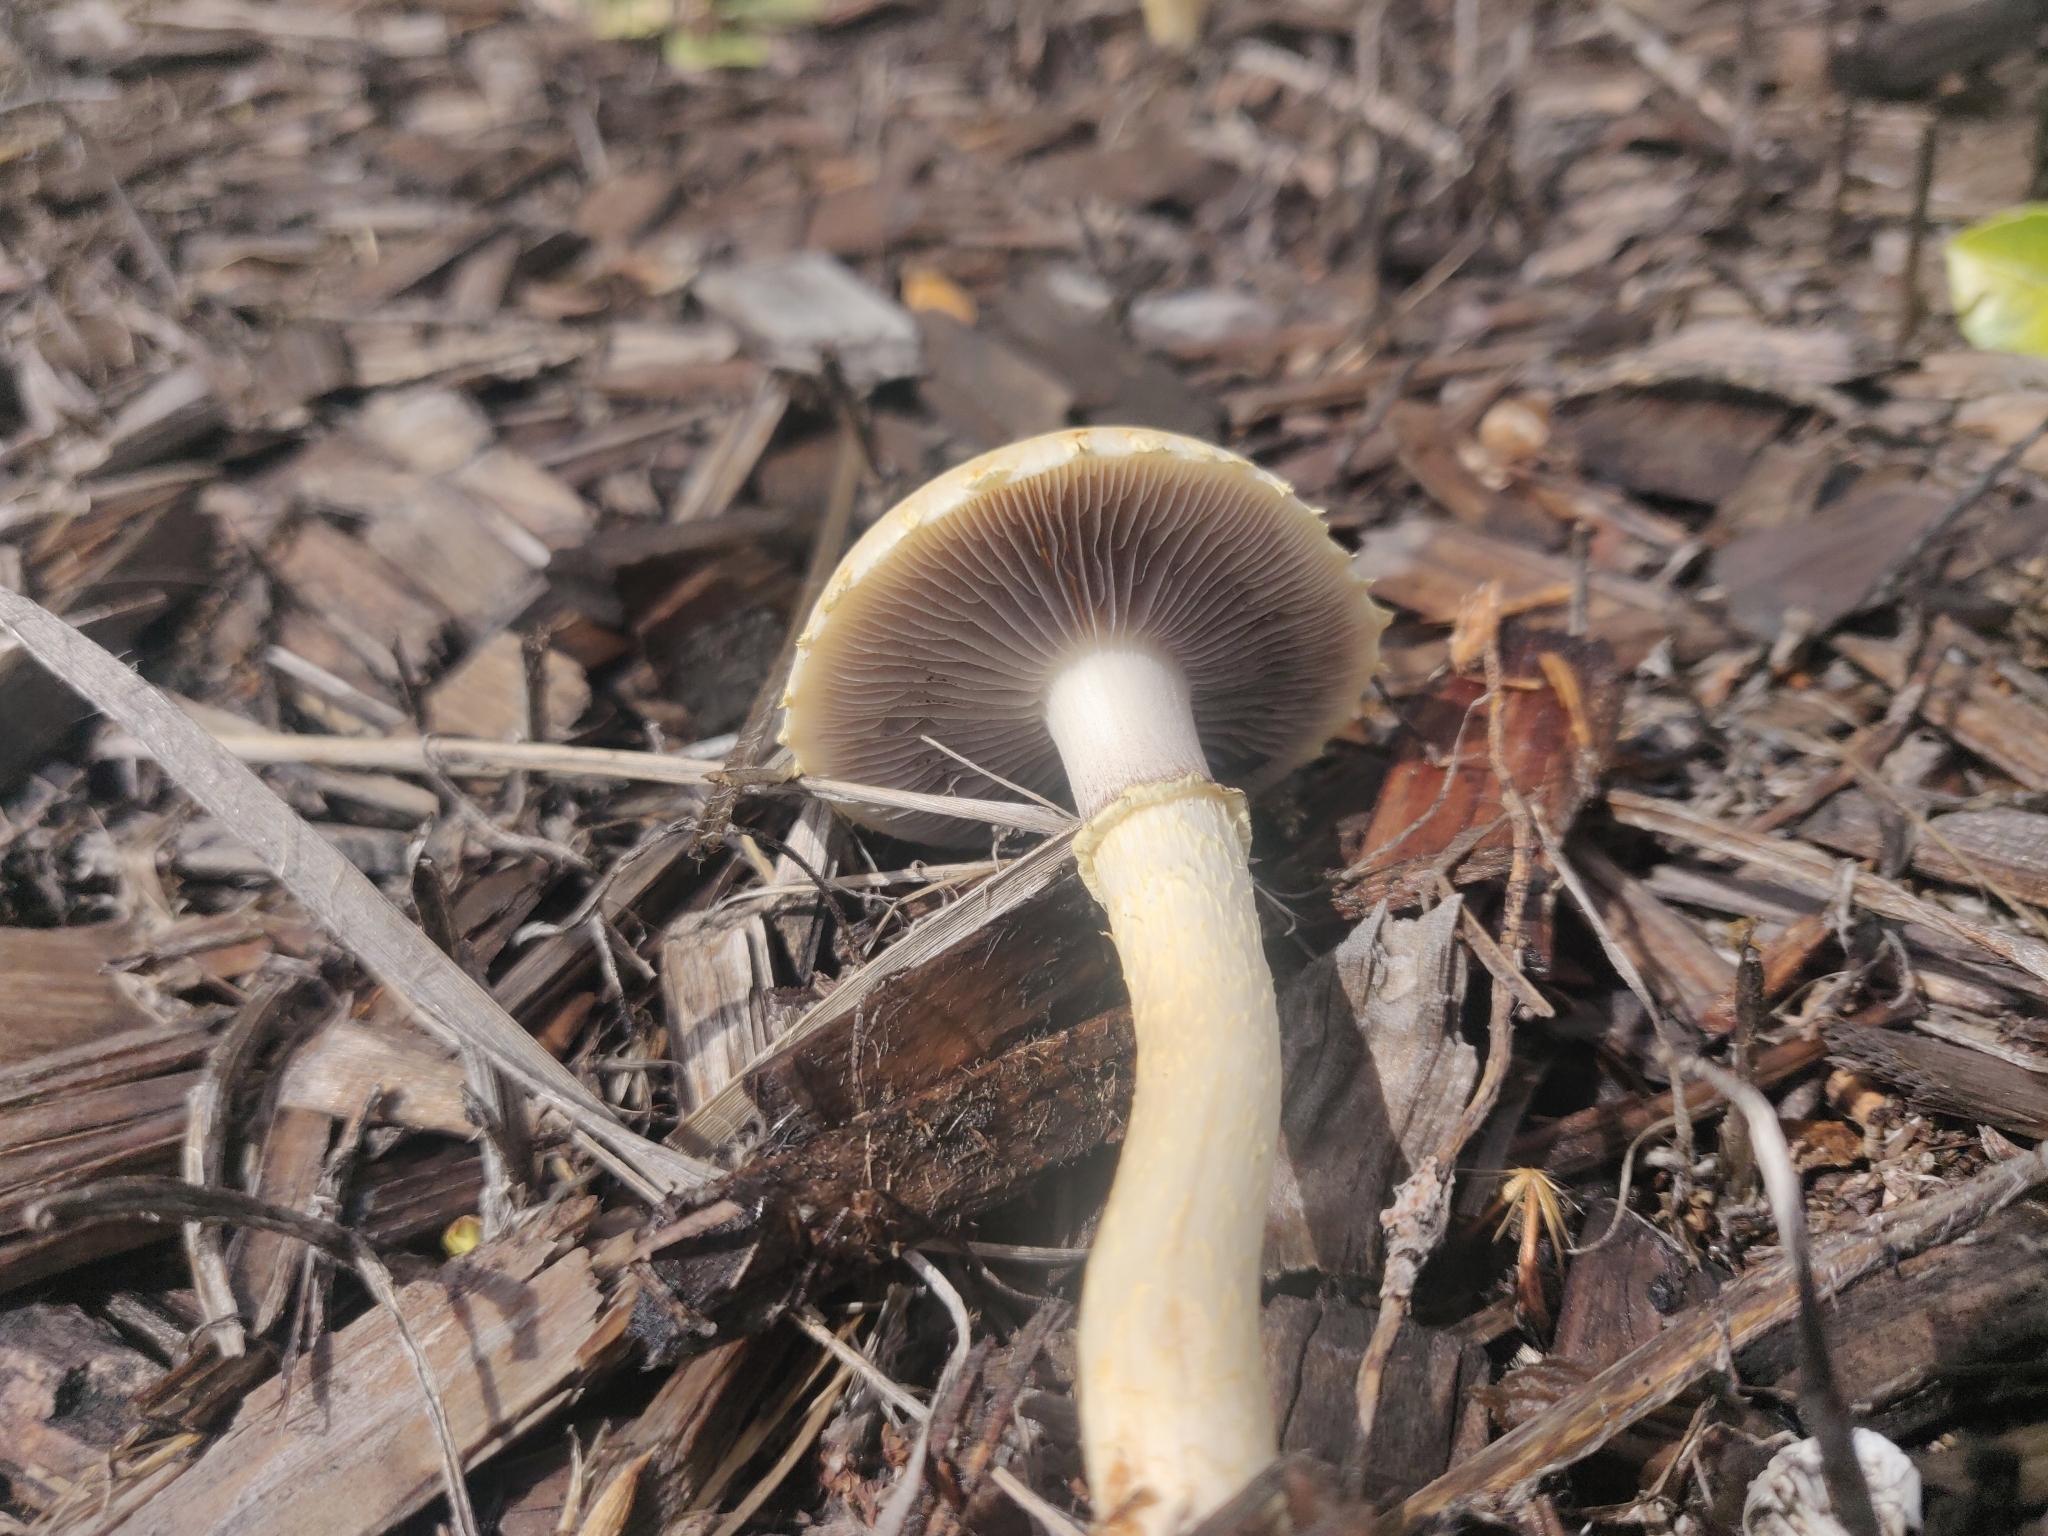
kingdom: Fungi
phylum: Basidiomycota
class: Agaricomycetes
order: Agaricales
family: Strophariaceae
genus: Leratiomyces
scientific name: Leratiomyces percevalii
